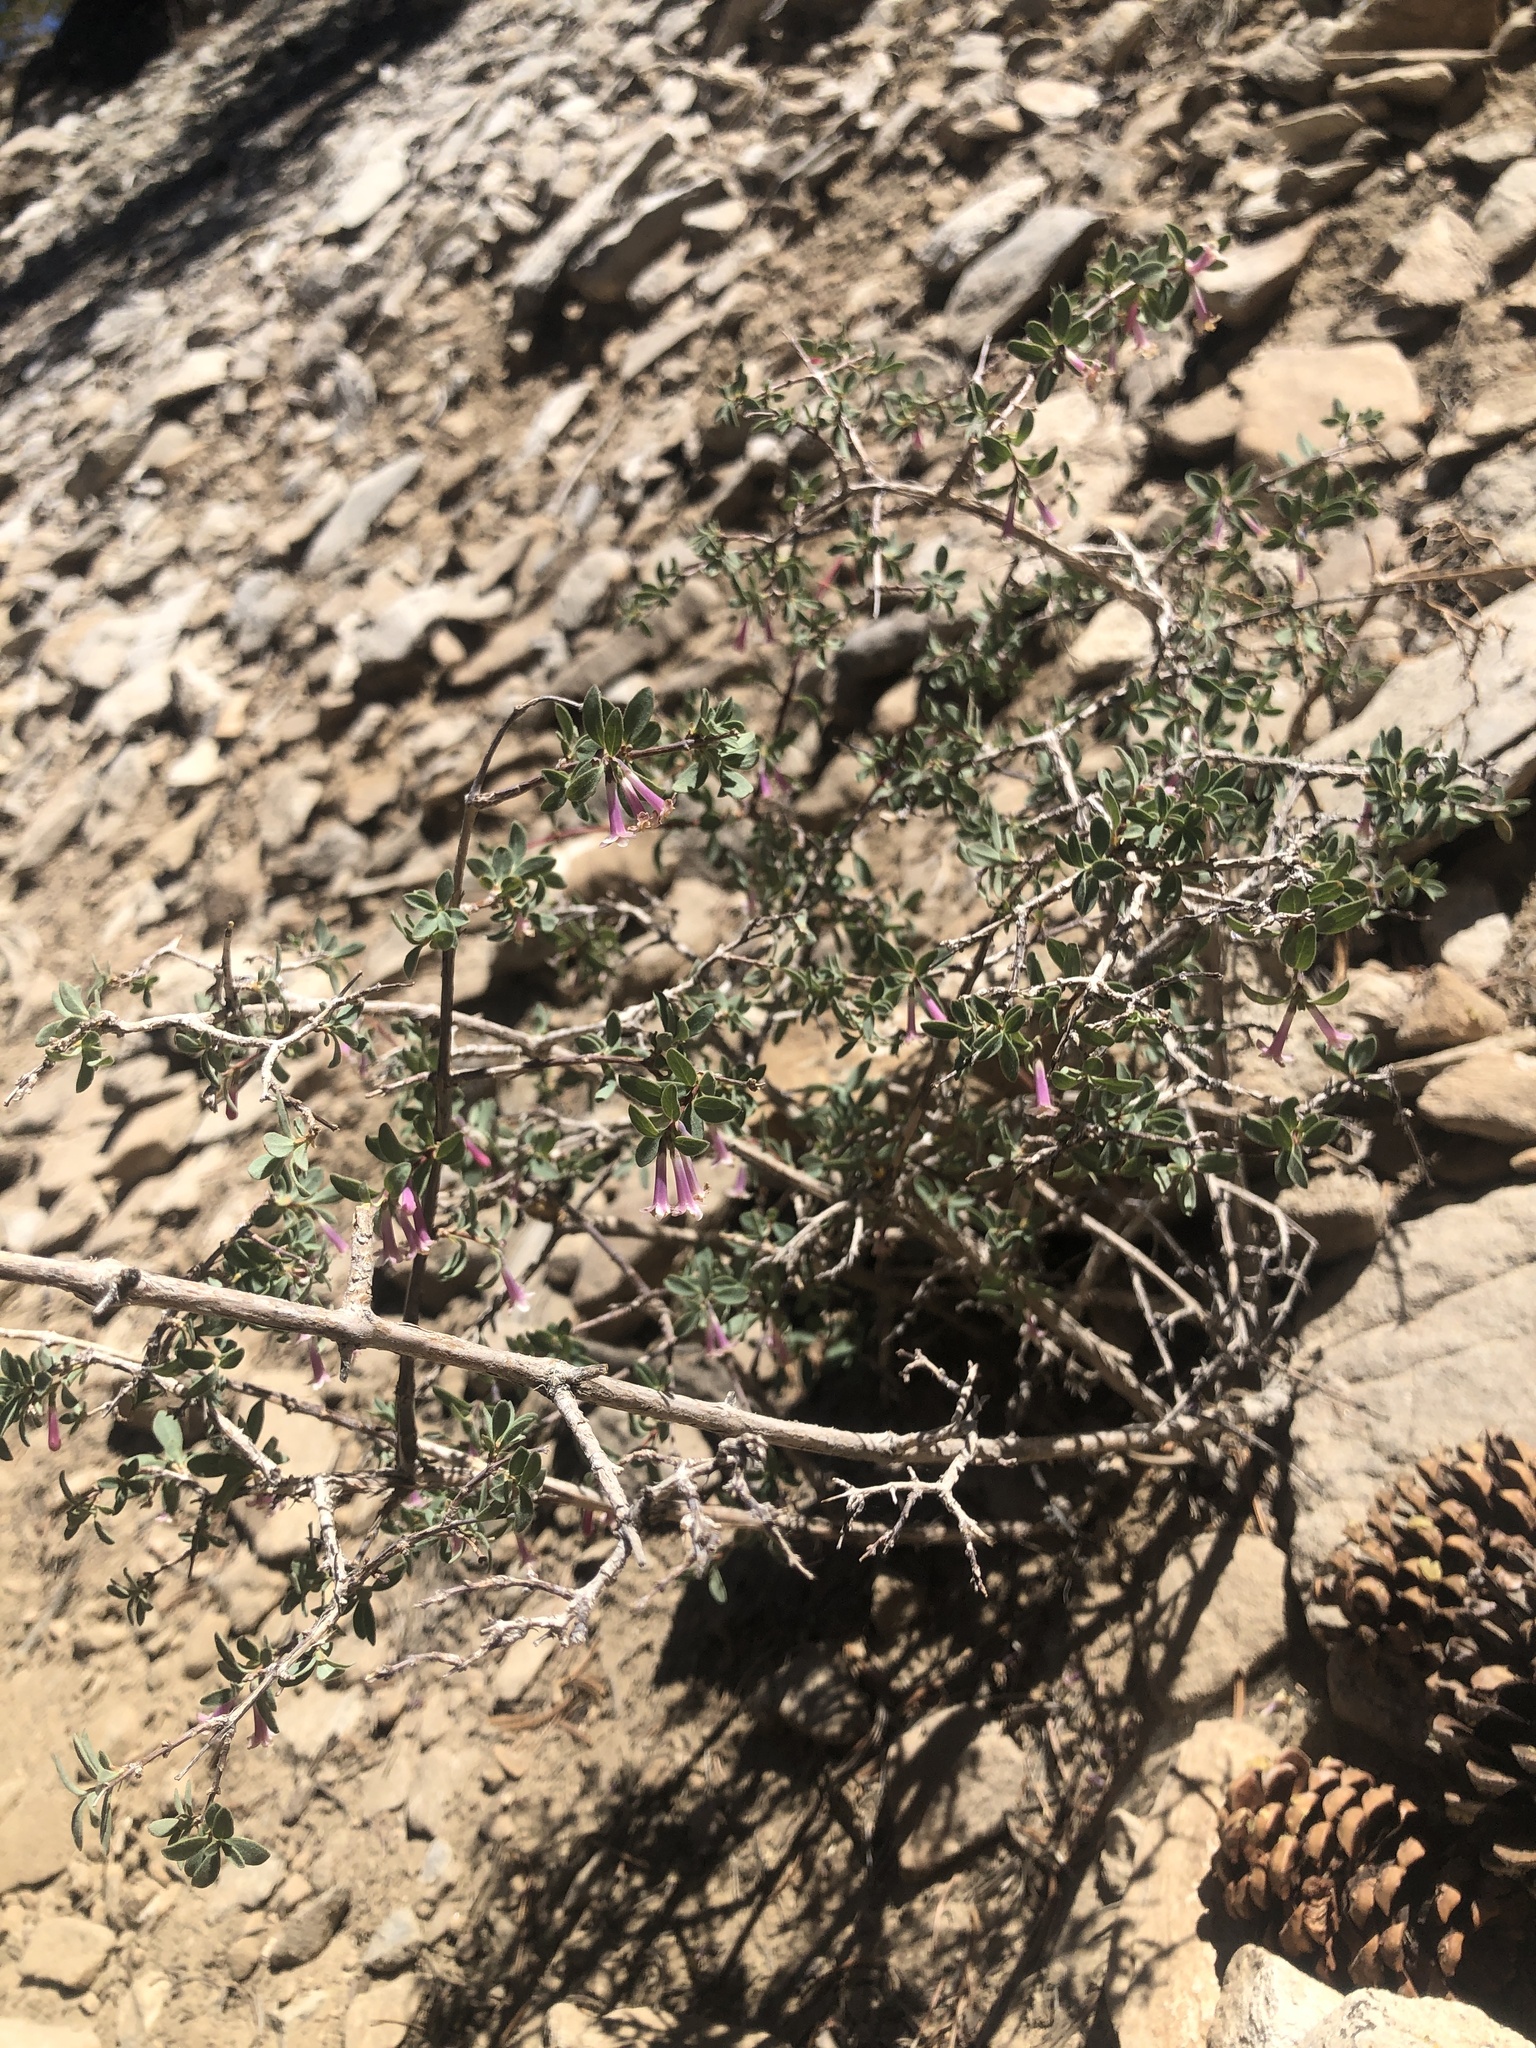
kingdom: Plantae
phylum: Tracheophyta
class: Magnoliopsida
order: Dipsacales
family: Caprifoliaceae
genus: Symphoricarpos
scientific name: Symphoricarpos longiflorus
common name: Fragrant snowberry
